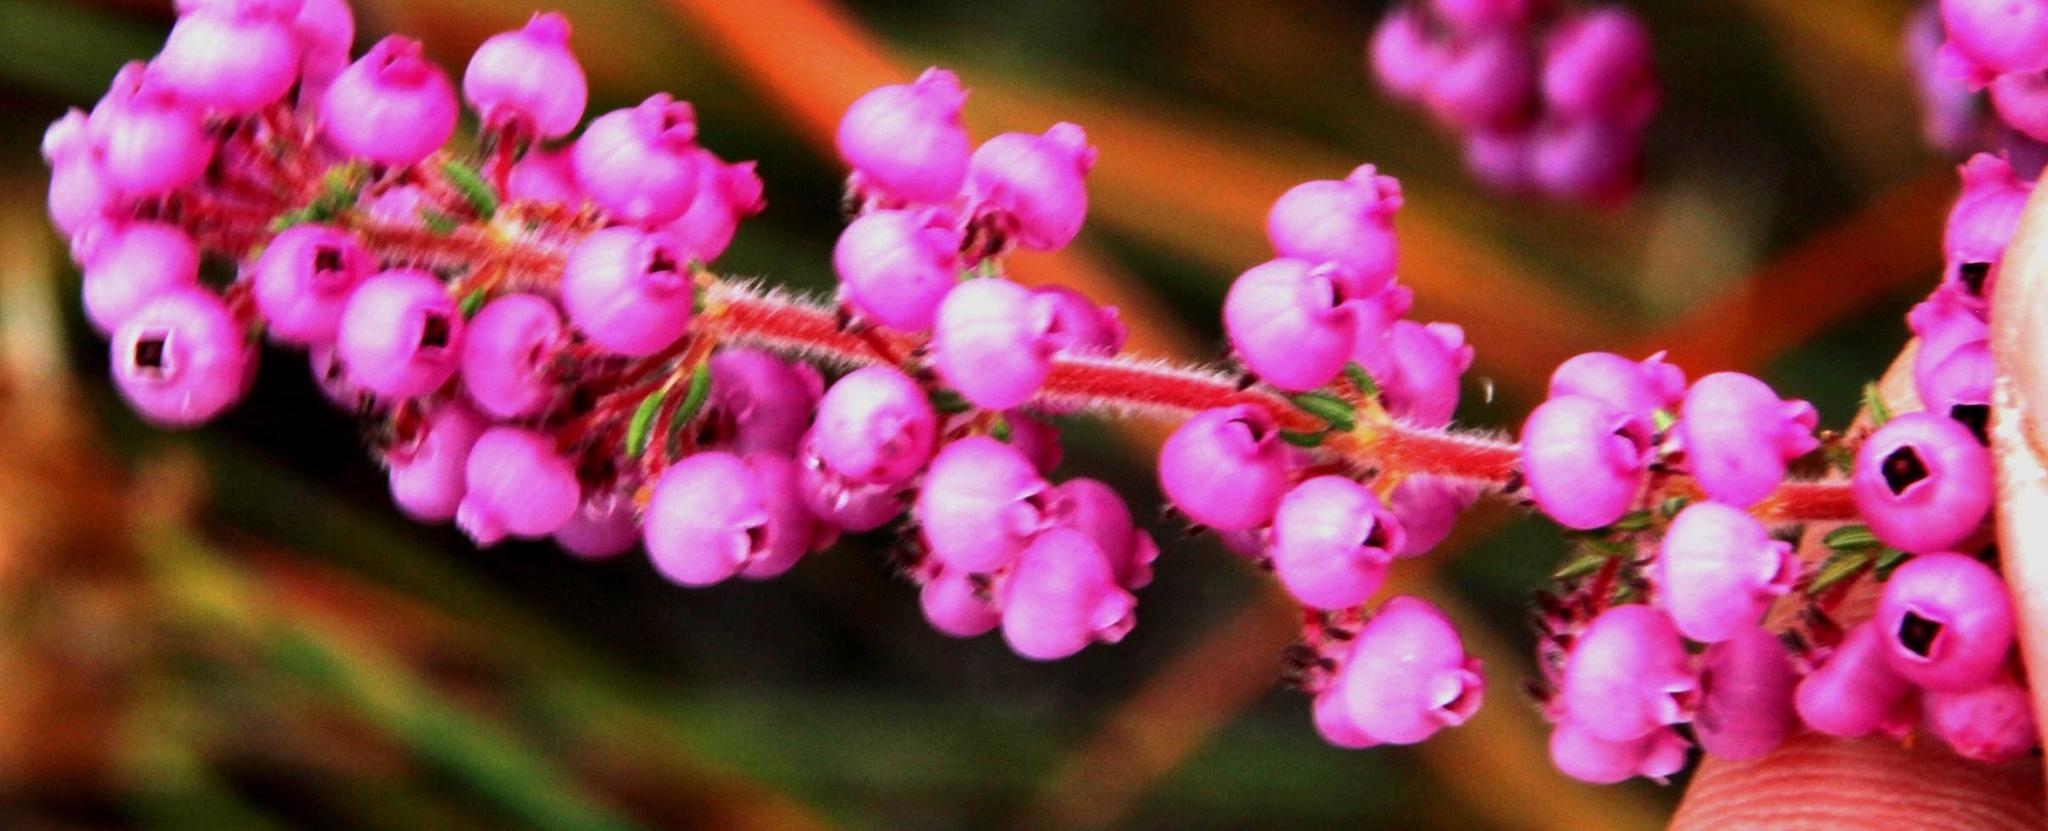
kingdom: Plantae
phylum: Tracheophyta
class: Magnoliopsida
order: Ericales
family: Ericaceae
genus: Erica
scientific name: Erica bergiana
